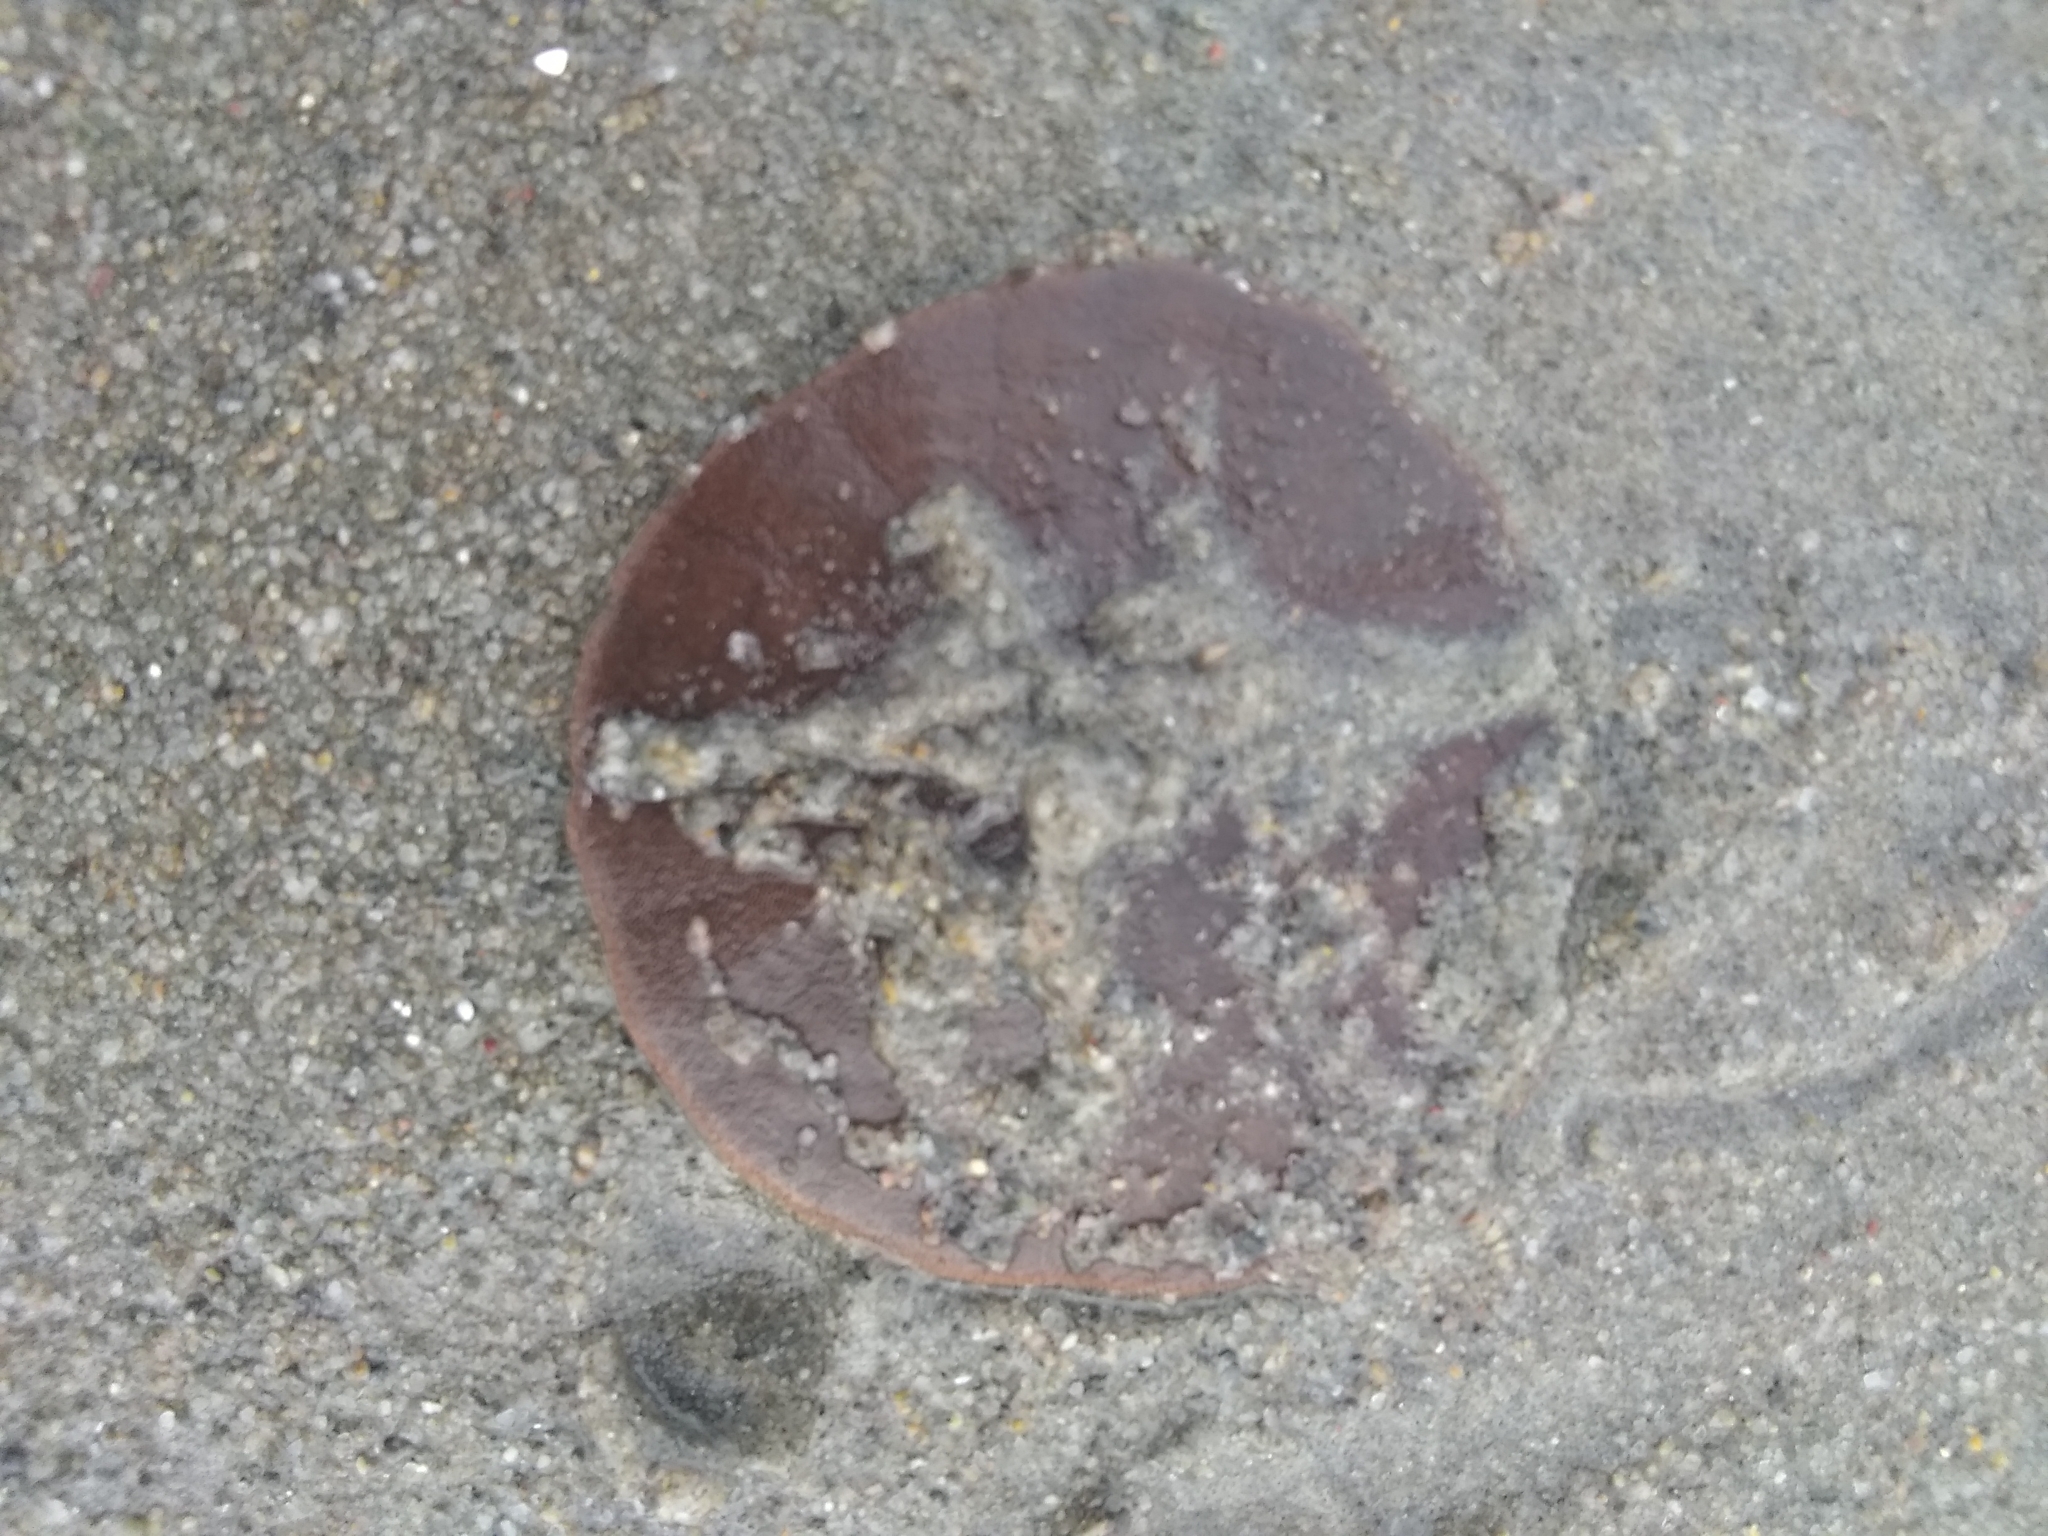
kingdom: Animalia
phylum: Echinodermata
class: Echinoidea
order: Echinolampadacea
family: Echinarachniidae
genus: Echinarachnius
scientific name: Echinarachnius parma
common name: Common sand dollar
